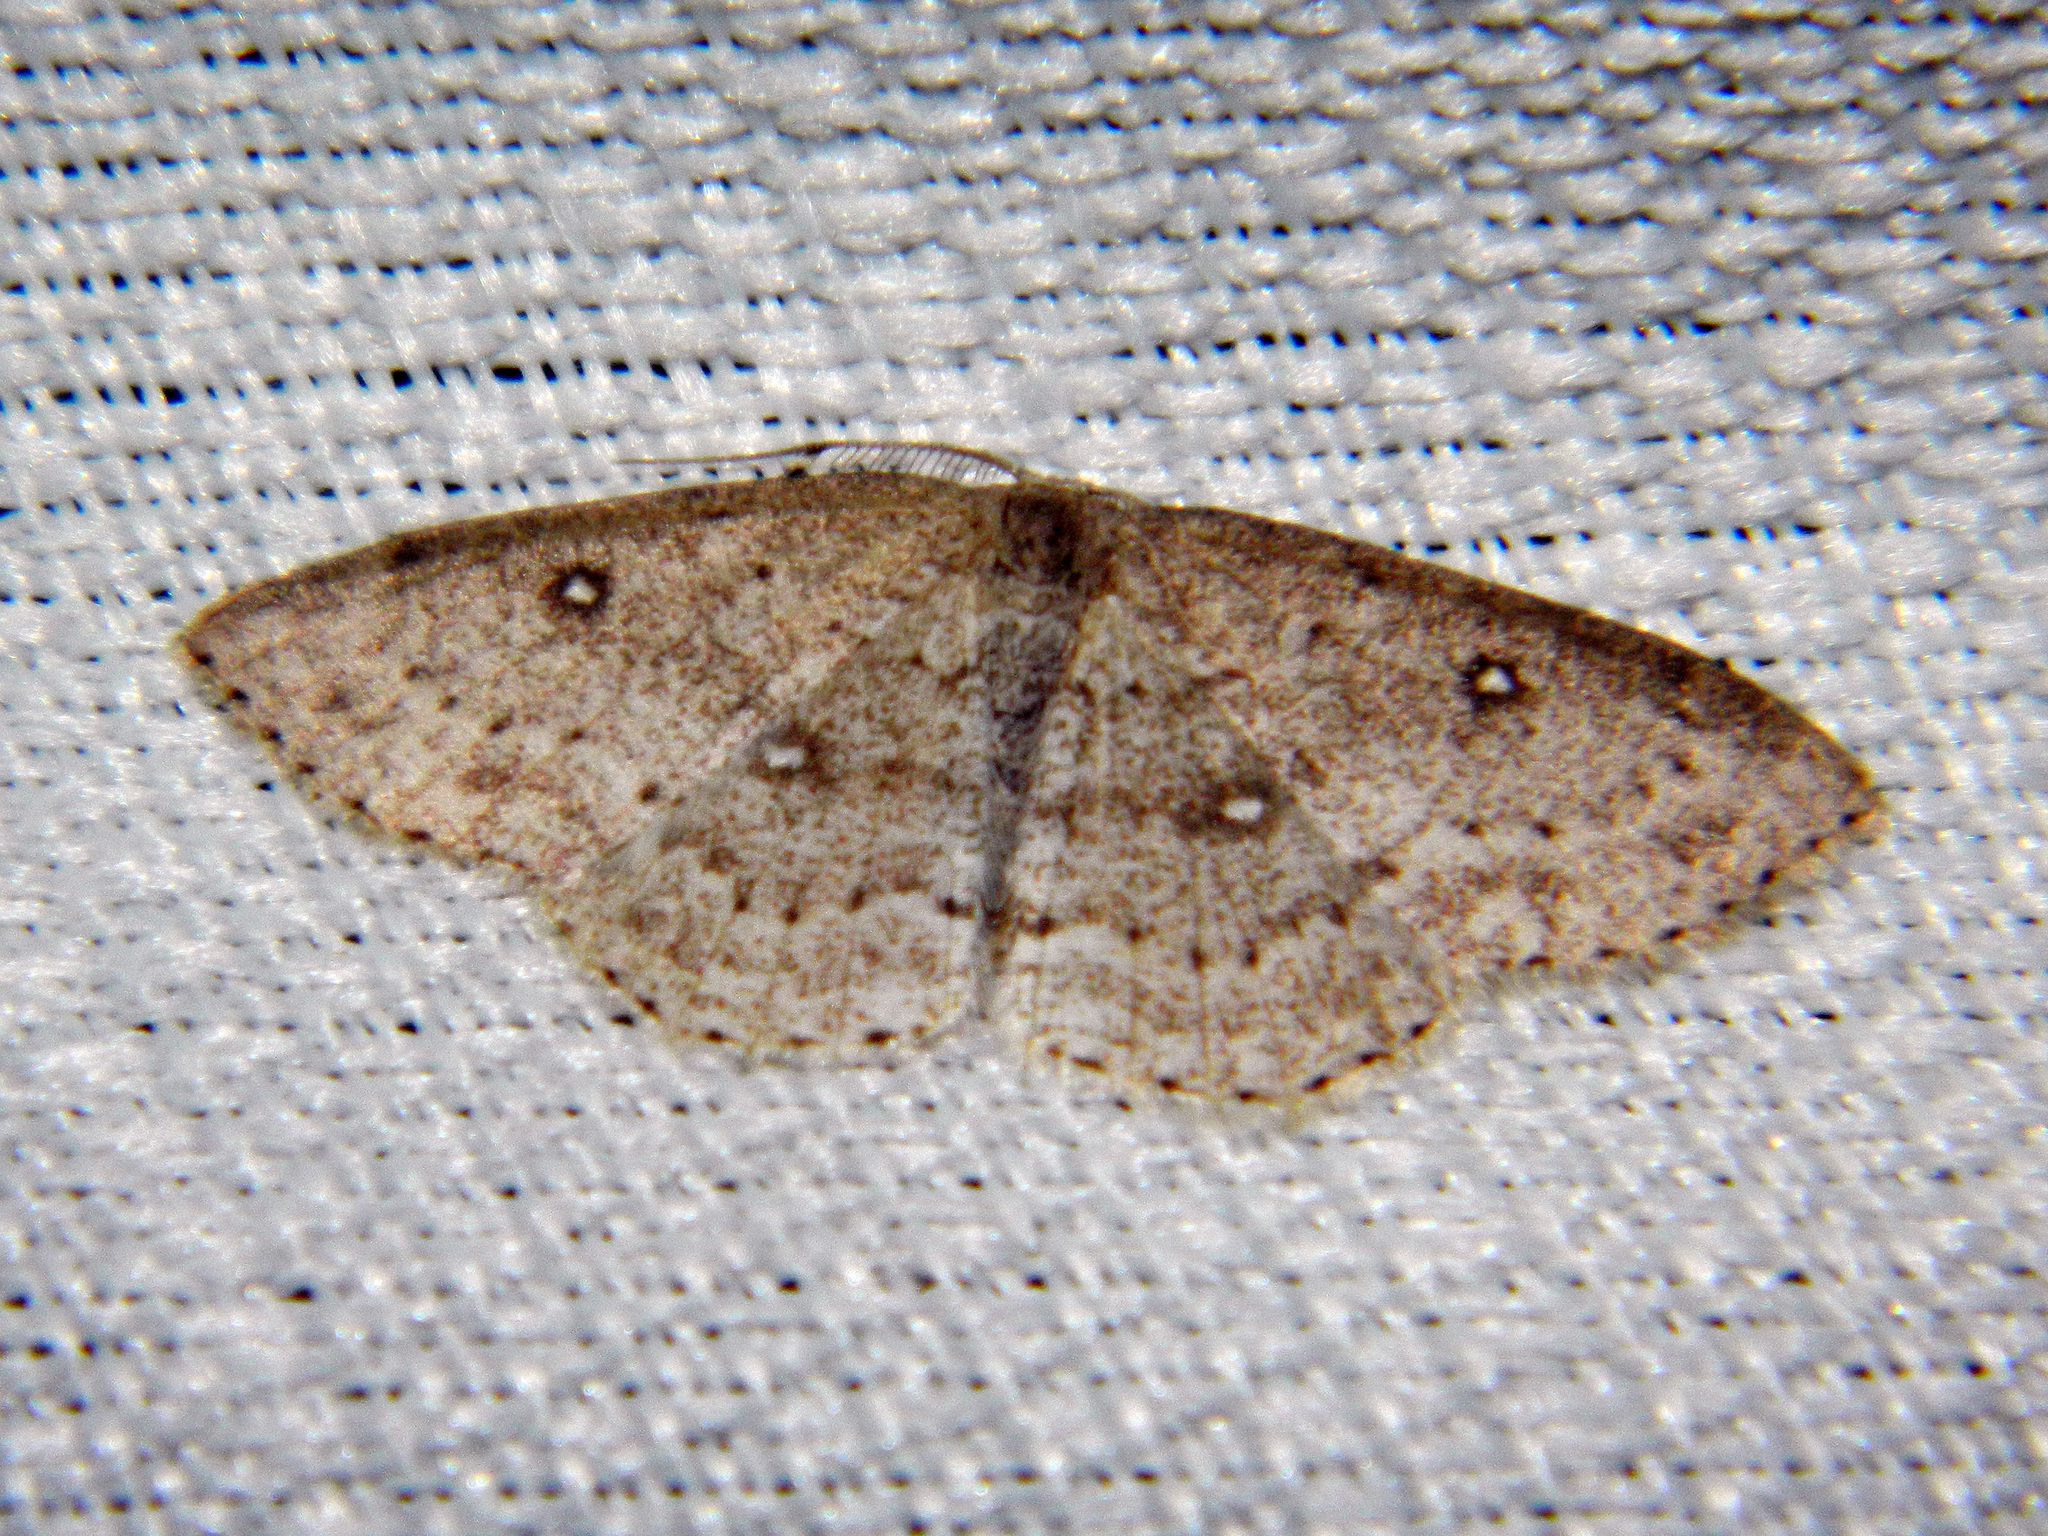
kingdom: Animalia
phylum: Arthropoda
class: Insecta
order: Lepidoptera
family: Geometridae
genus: Cyclophora
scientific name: Cyclophora pendulinaria
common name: Sweet fern geometer
